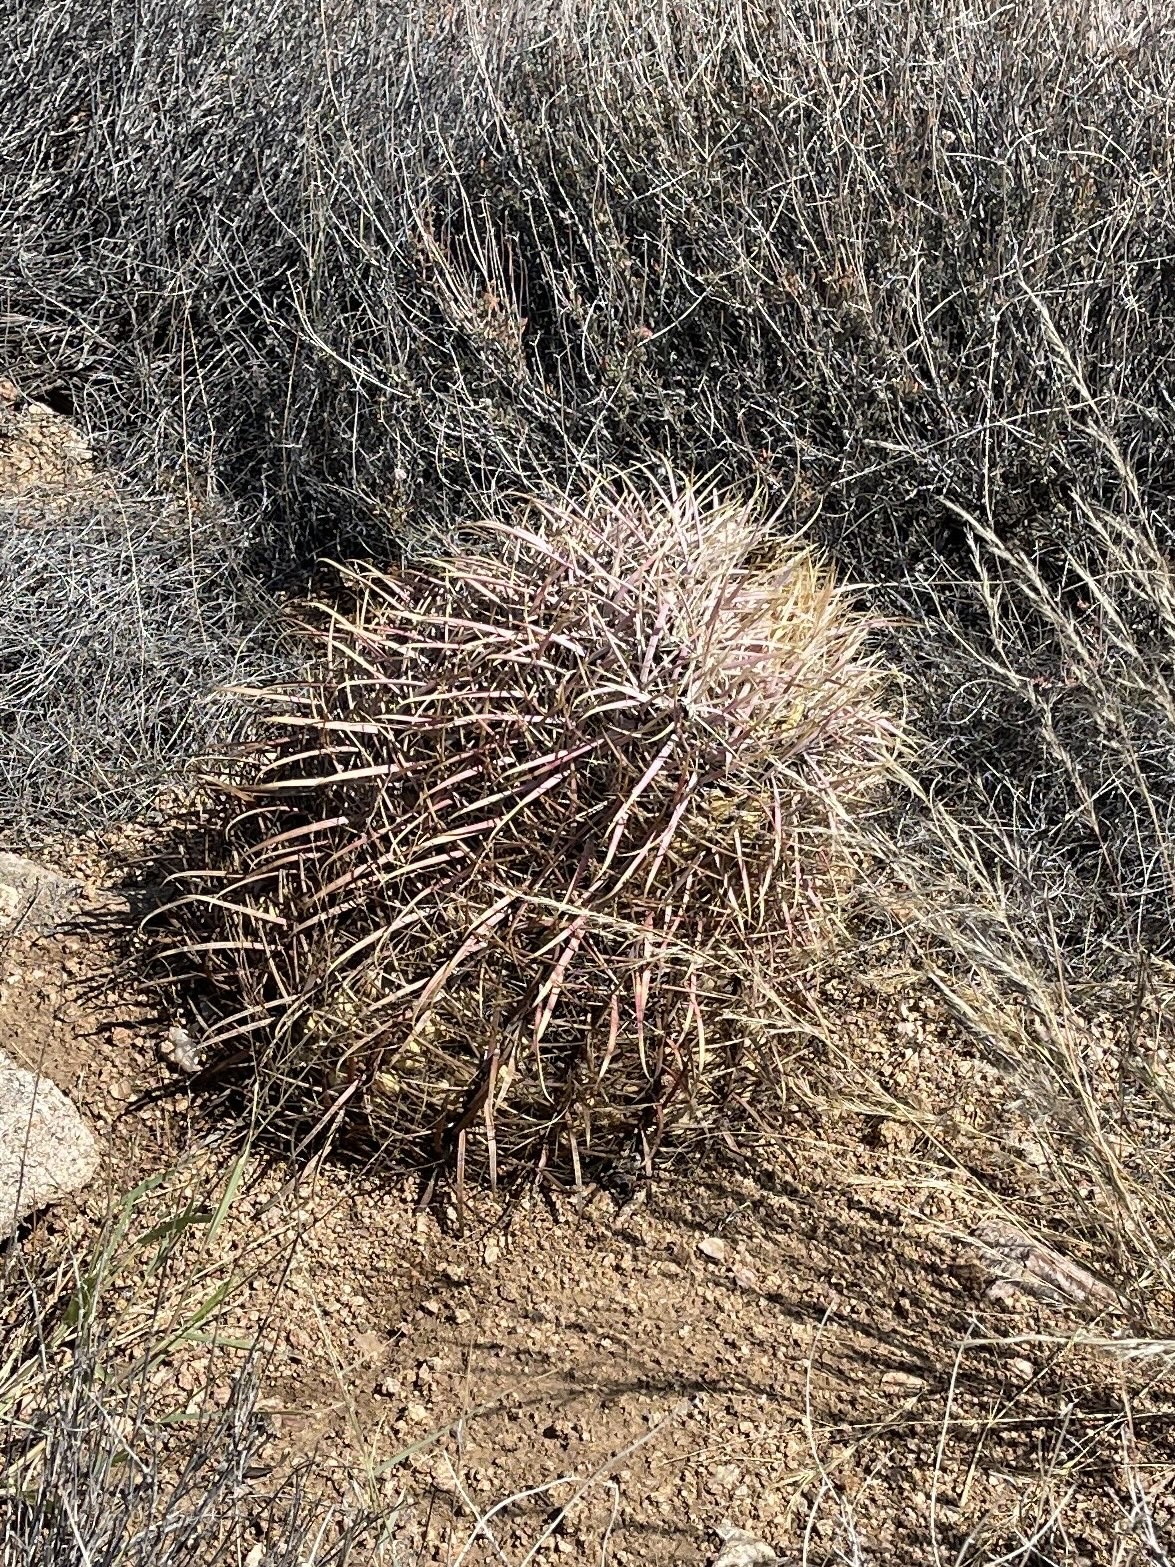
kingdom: Plantae
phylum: Tracheophyta
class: Magnoliopsida
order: Caryophyllales
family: Cactaceae
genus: Ferocactus
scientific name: Ferocactus cylindraceus
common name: California barrel cactus
